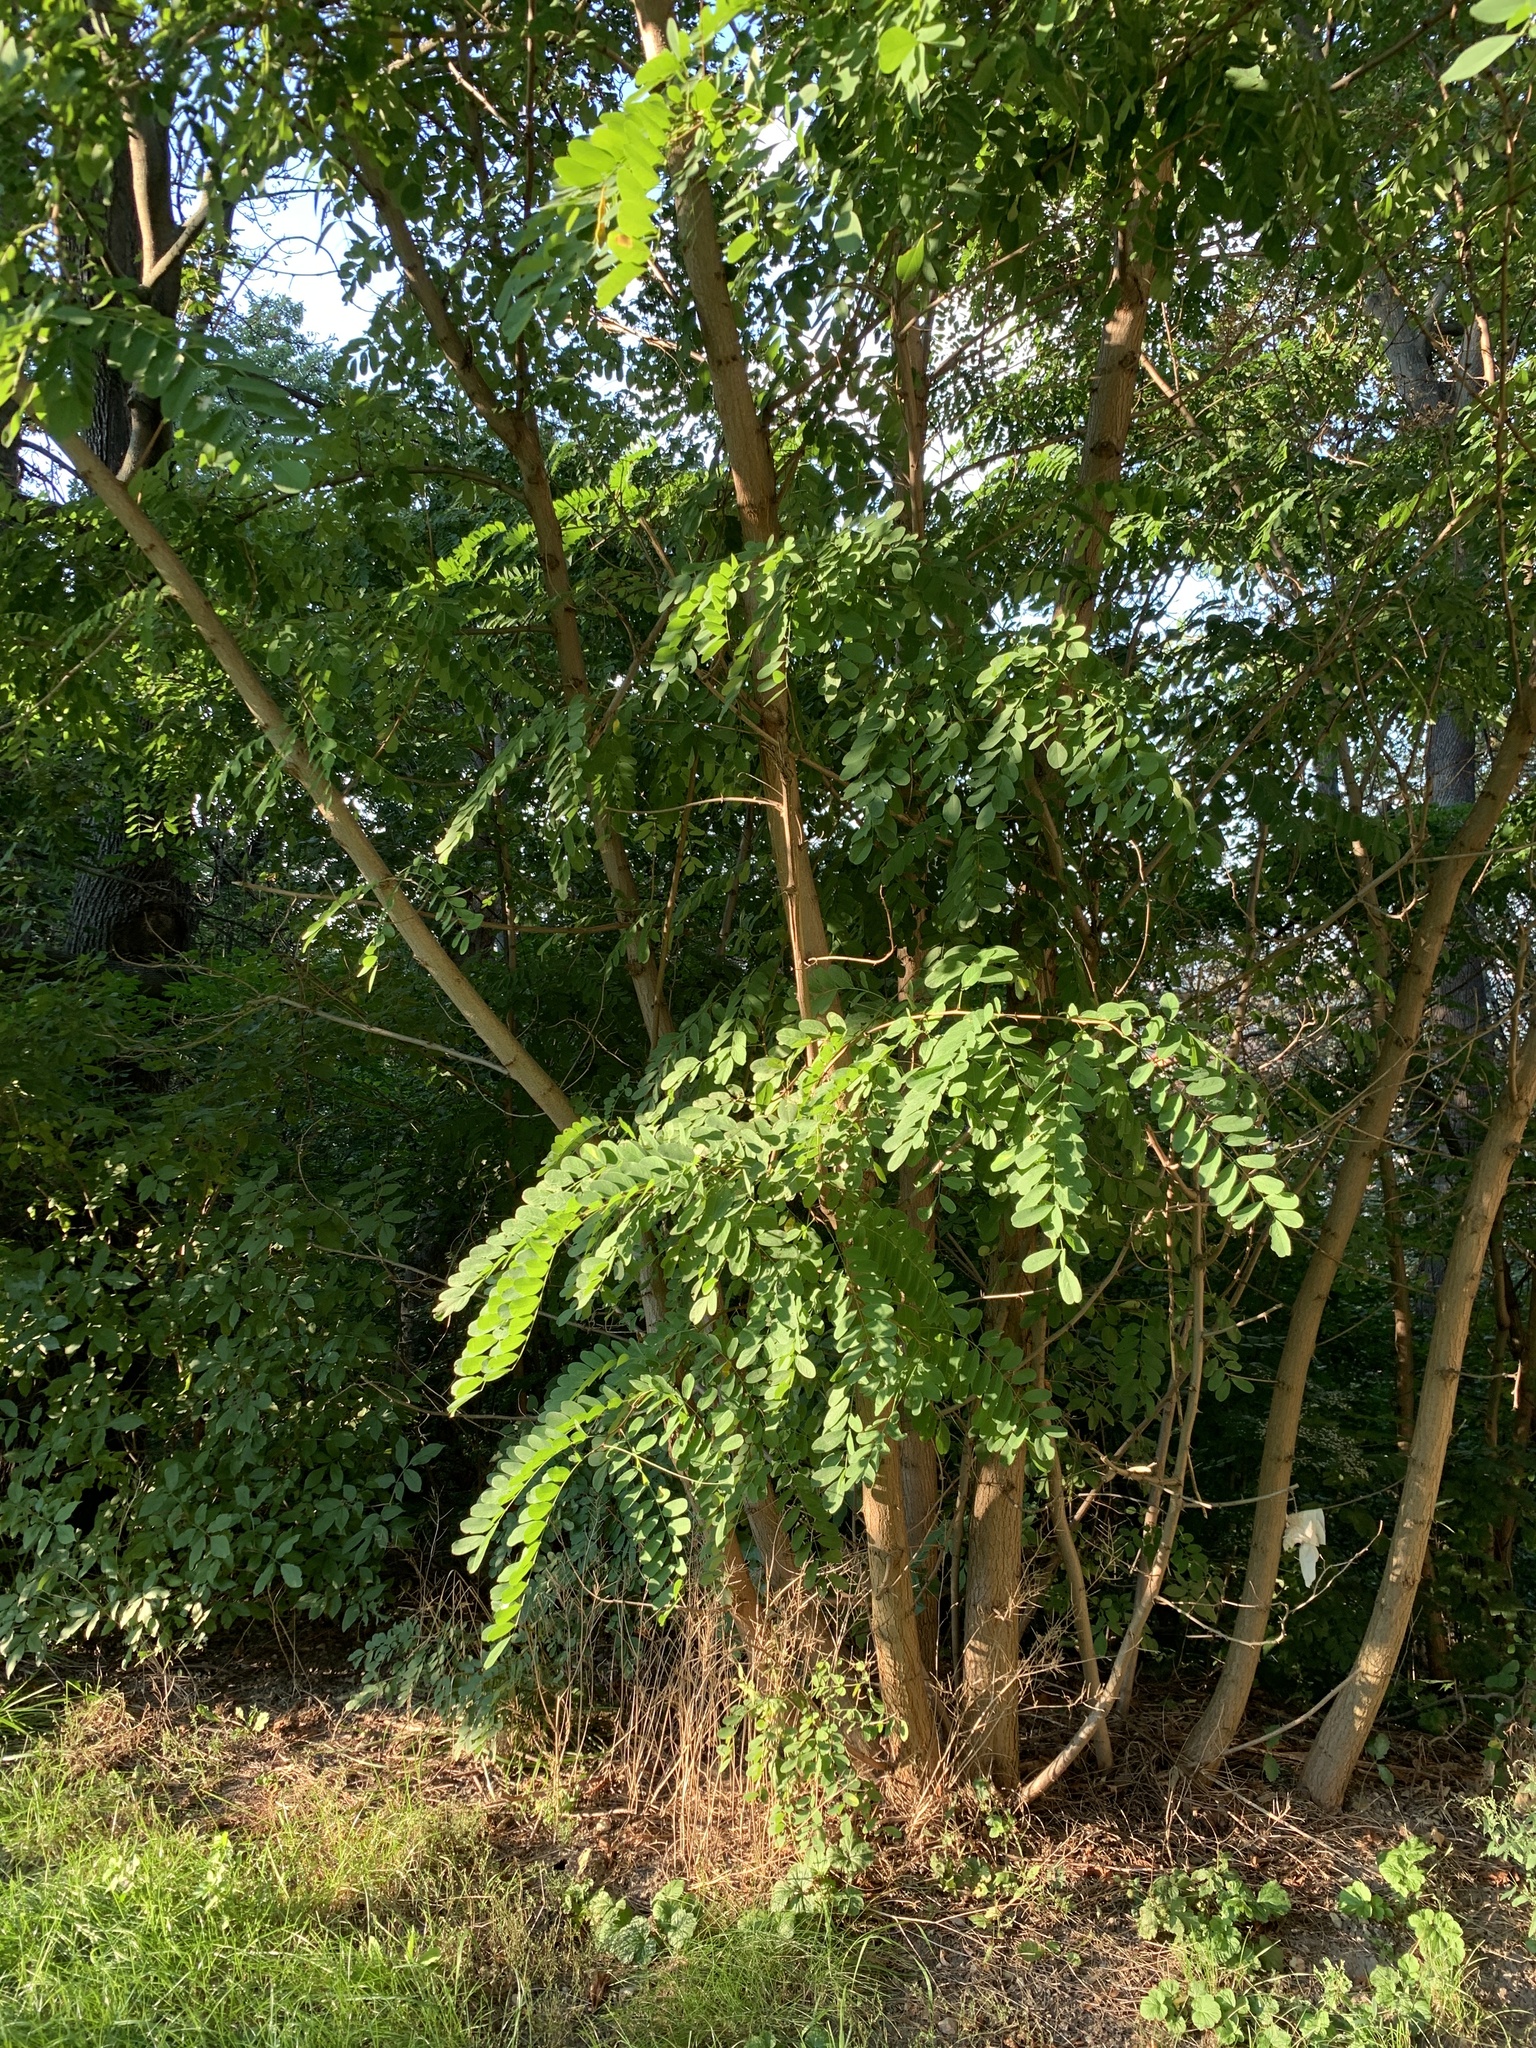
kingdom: Plantae
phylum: Tracheophyta
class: Magnoliopsida
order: Fabales
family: Fabaceae
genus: Robinia
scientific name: Robinia pseudoacacia
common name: Black locust
